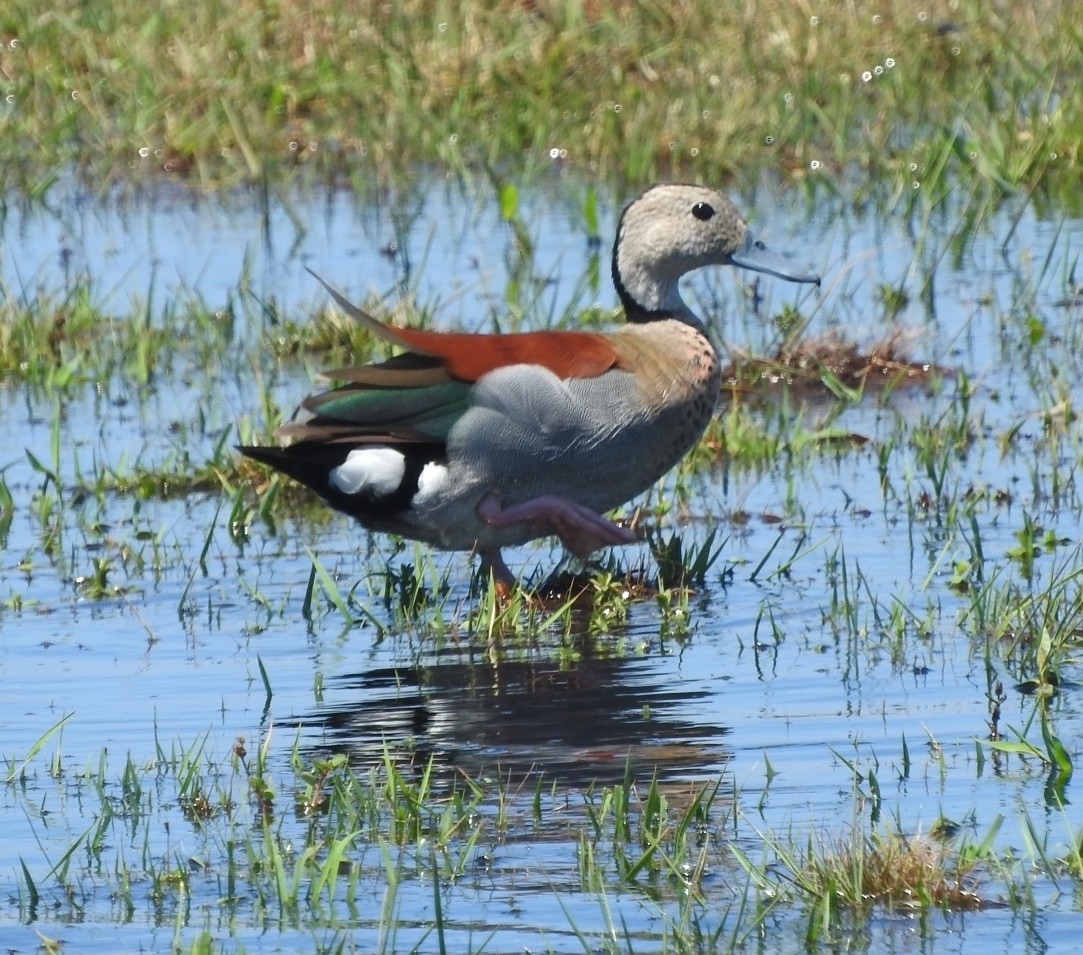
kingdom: Animalia
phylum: Chordata
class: Aves
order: Anseriformes
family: Anatidae
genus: Callonetta
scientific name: Callonetta leucophrys
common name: Ringed teal
